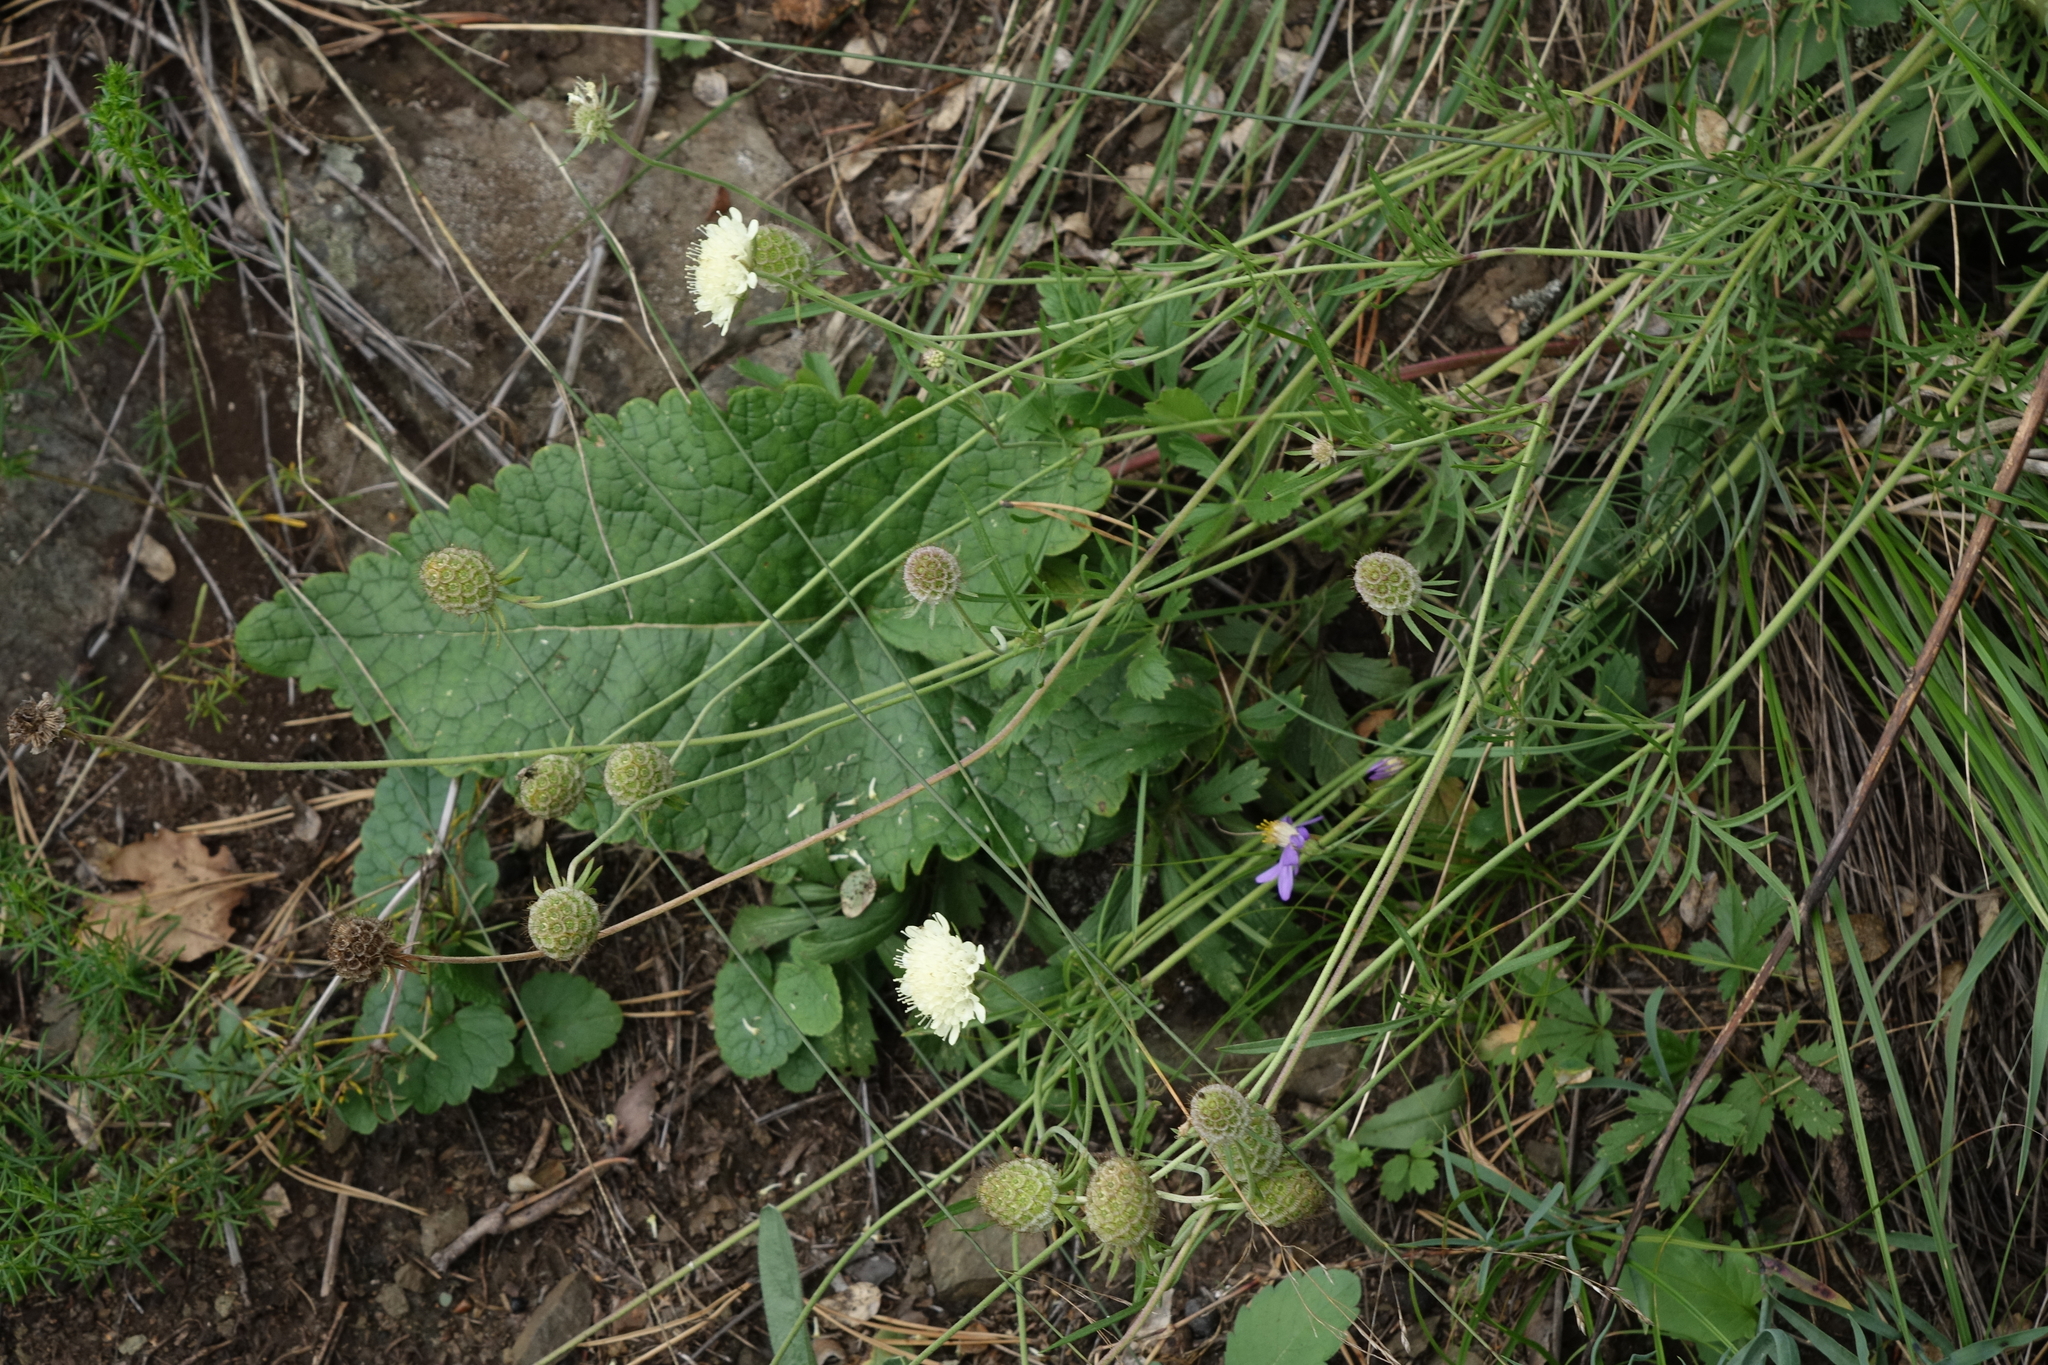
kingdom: Plantae
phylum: Tracheophyta
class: Magnoliopsida
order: Dipsacales
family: Caprifoliaceae
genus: Scabiosa
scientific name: Scabiosa ochroleuca
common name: Cream pincushions
